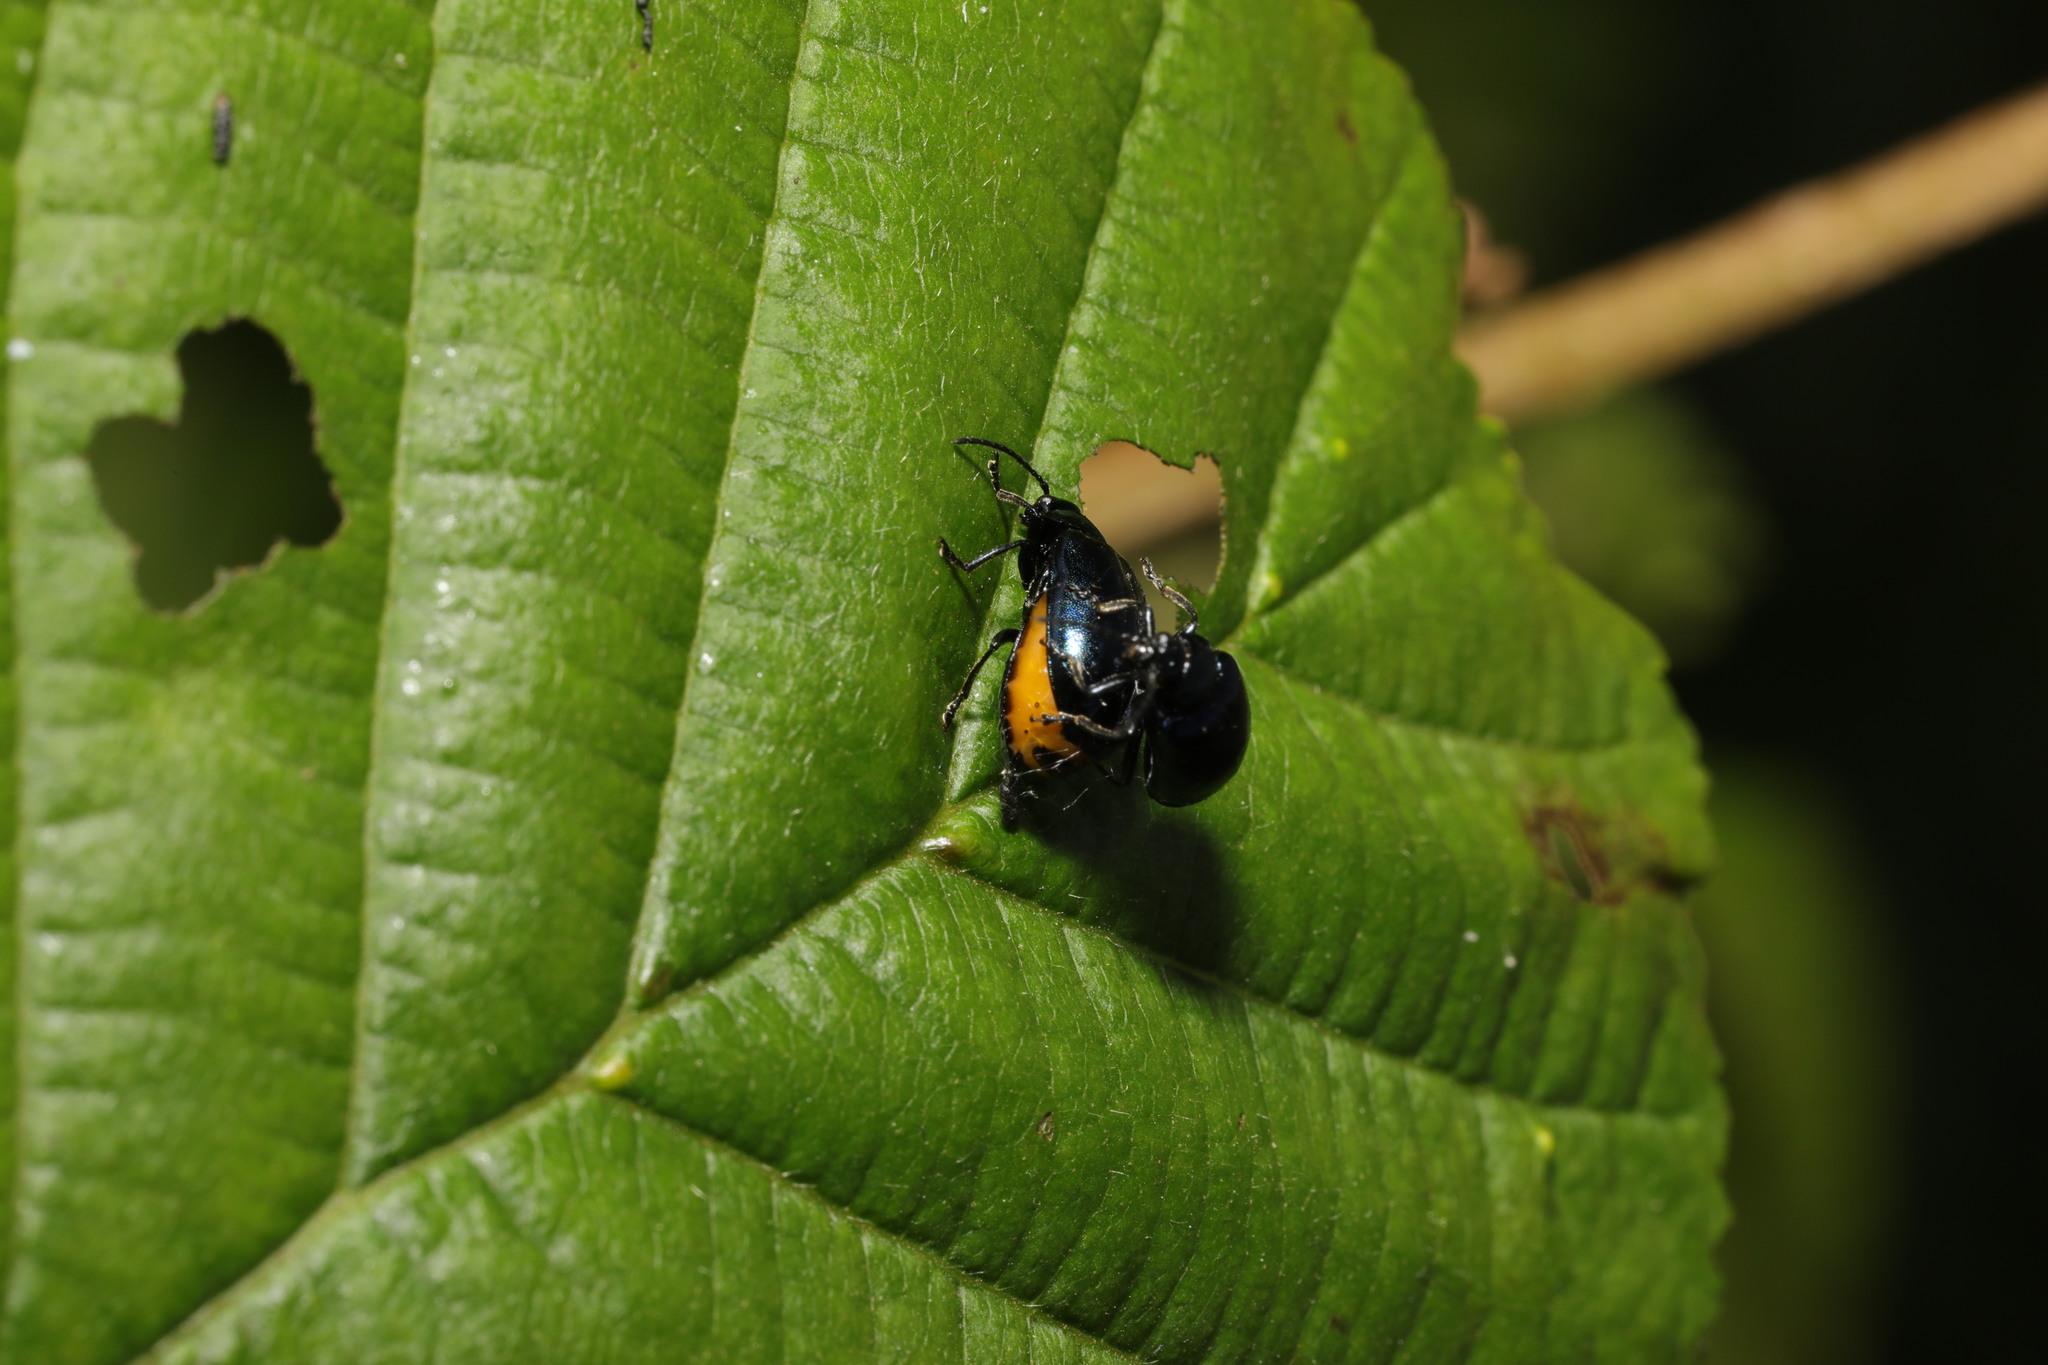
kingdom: Animalia
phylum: Arthropoda
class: Insecta
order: Coleoptera
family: Chrysomelidae
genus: Agelastica
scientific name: Agelastica alni
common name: Alder leaf beetle
